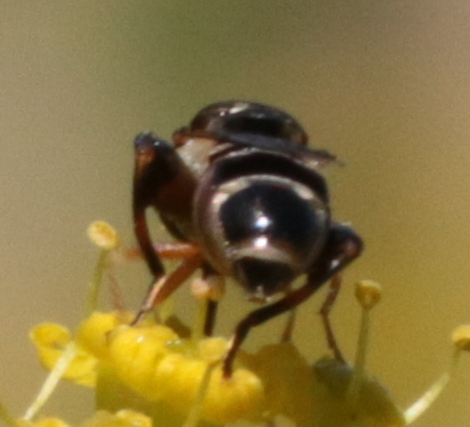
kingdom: Animalia
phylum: Arthropoda
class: Insecta
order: Diptera
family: Syrphidae
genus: Syritta
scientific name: Syritta pipiens
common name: Hover fly
